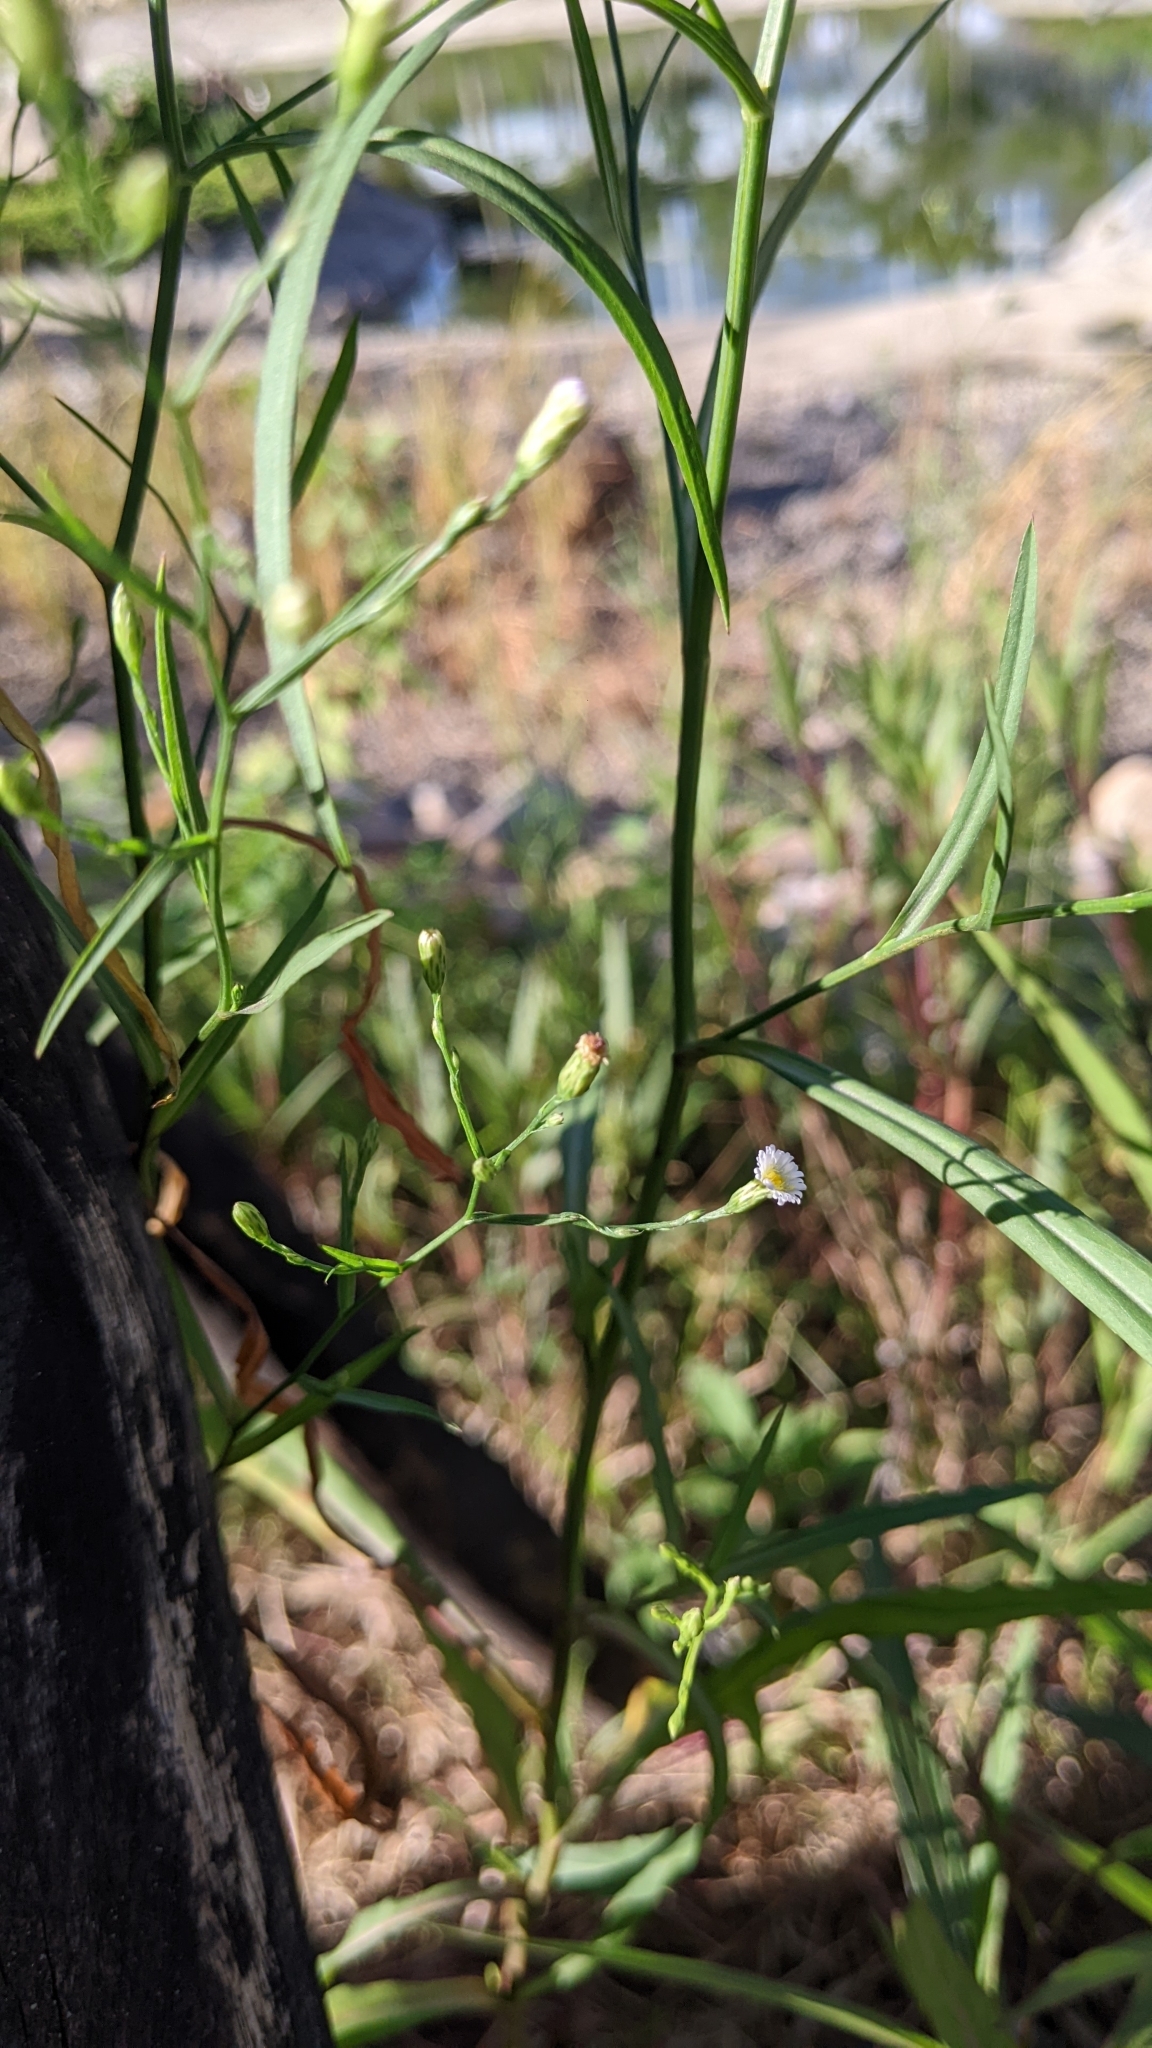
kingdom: Plantae
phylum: Tracheophyta
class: Magnoliopsida
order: Asterales
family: Asteraceae
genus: Symphyotrichum
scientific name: Symphyotrichum subulatum
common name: Annual saltmarsh aster
